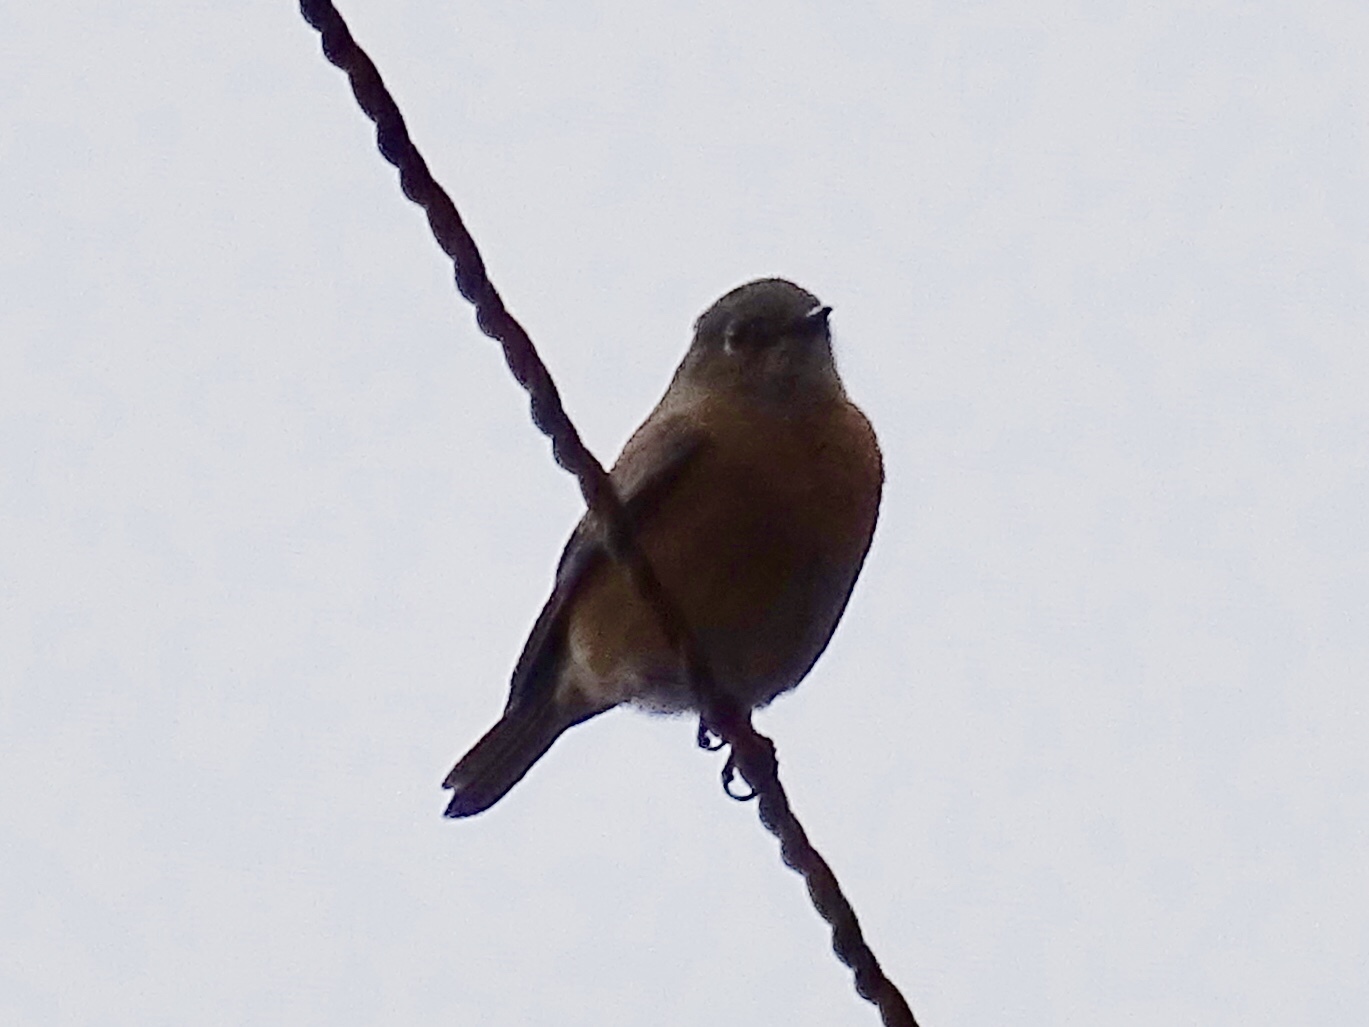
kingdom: Animalia
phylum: Chordata
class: Aves
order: Passeriformes
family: Turdidae
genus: Sialia
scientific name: Sialia mexicana
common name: Western bluebird
